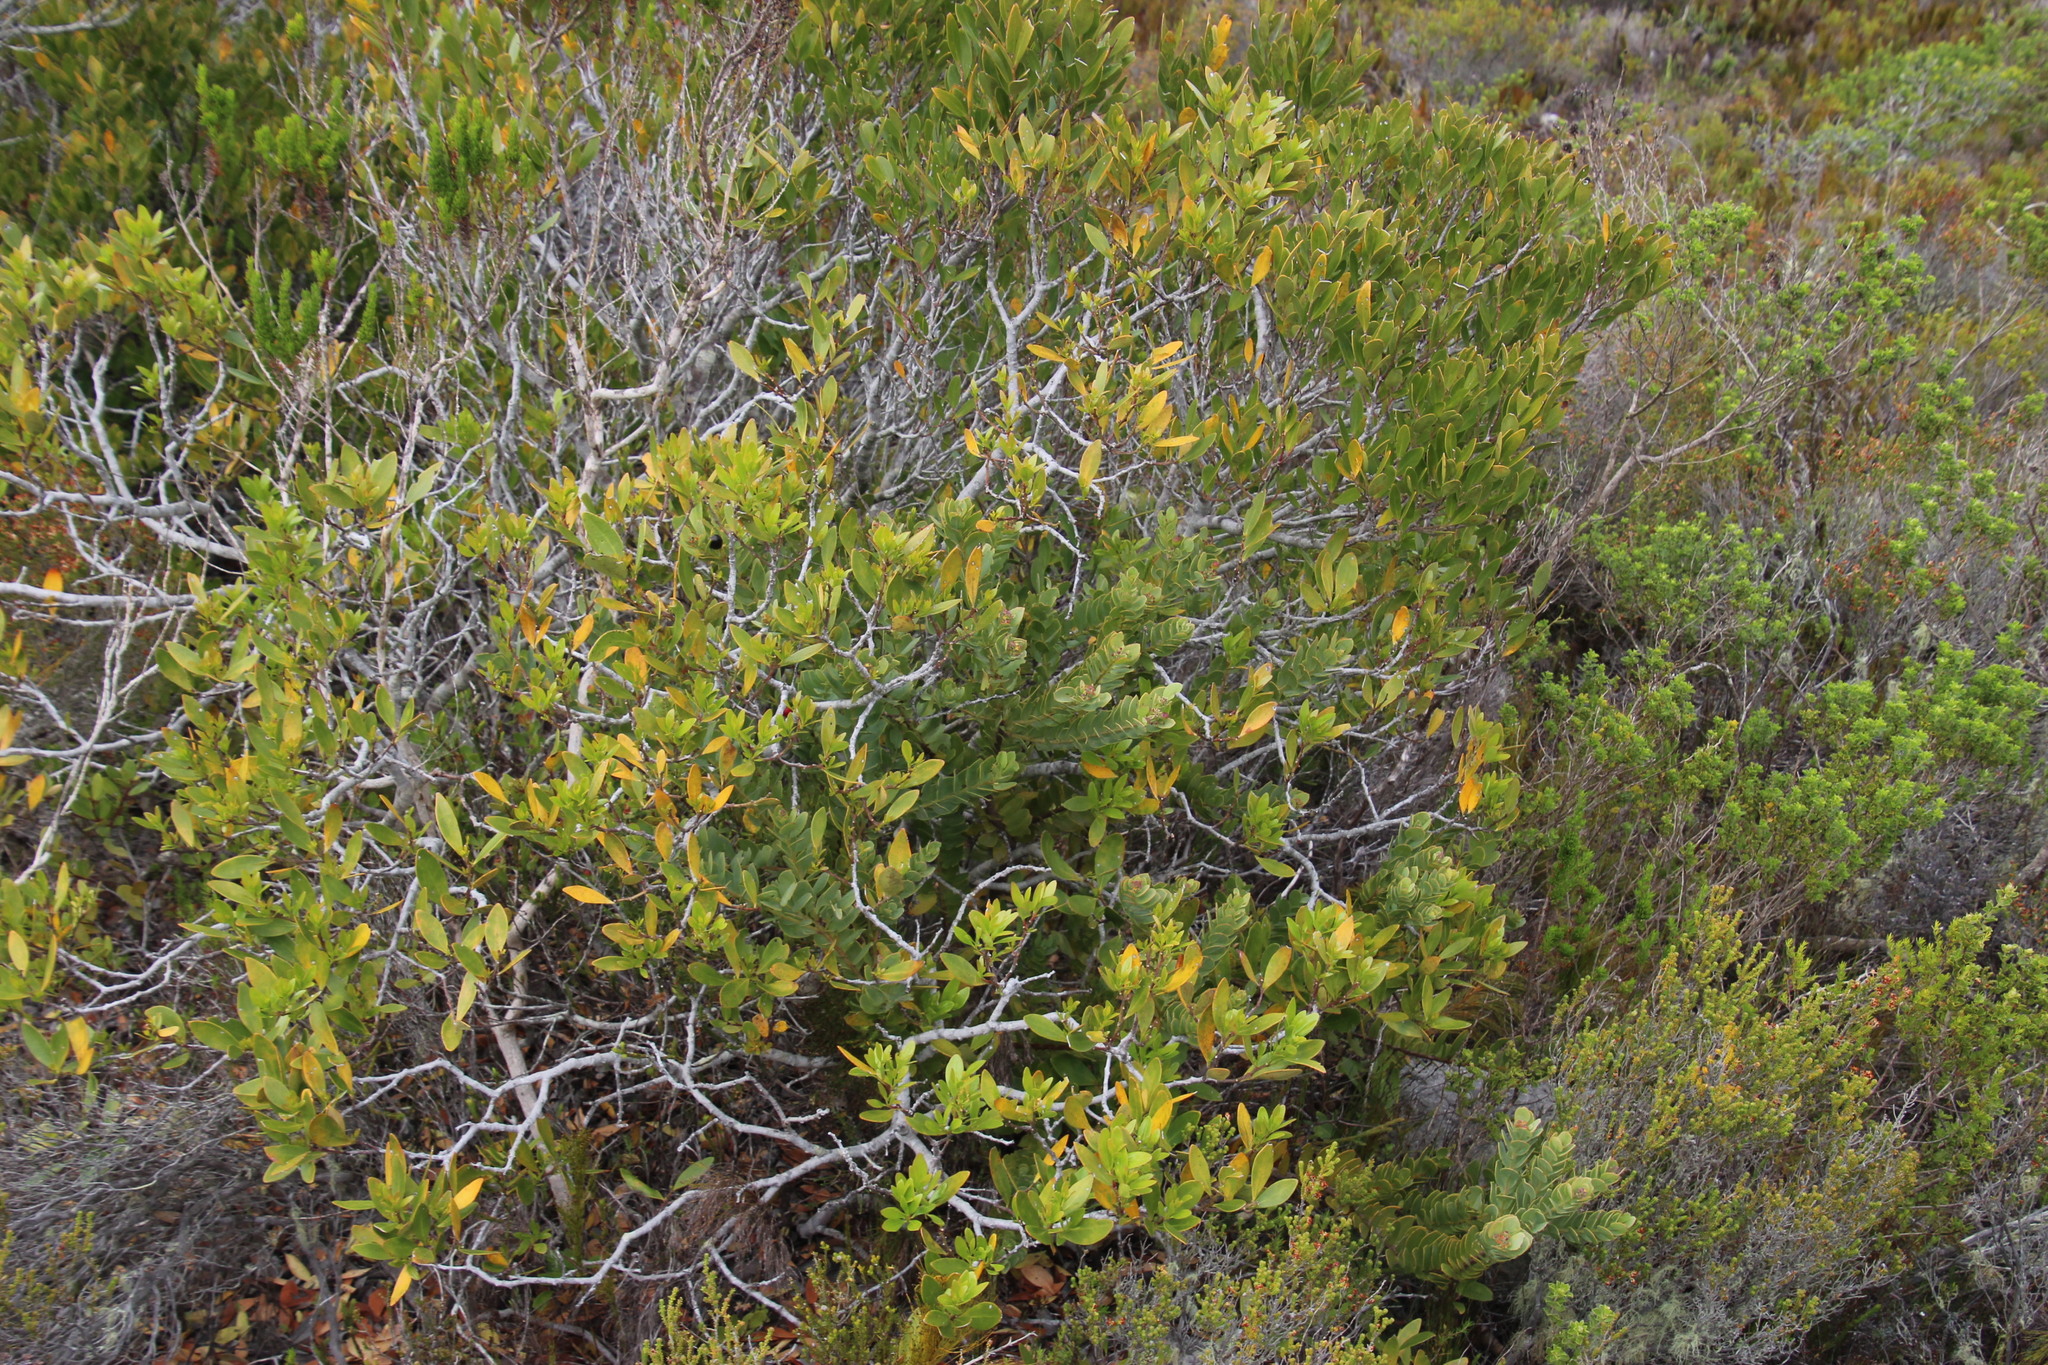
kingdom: Plantae
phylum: Tracheophyta
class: Magnoliopsida
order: Santalales
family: Santalaceae
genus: Osyris
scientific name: Osyris compressa
